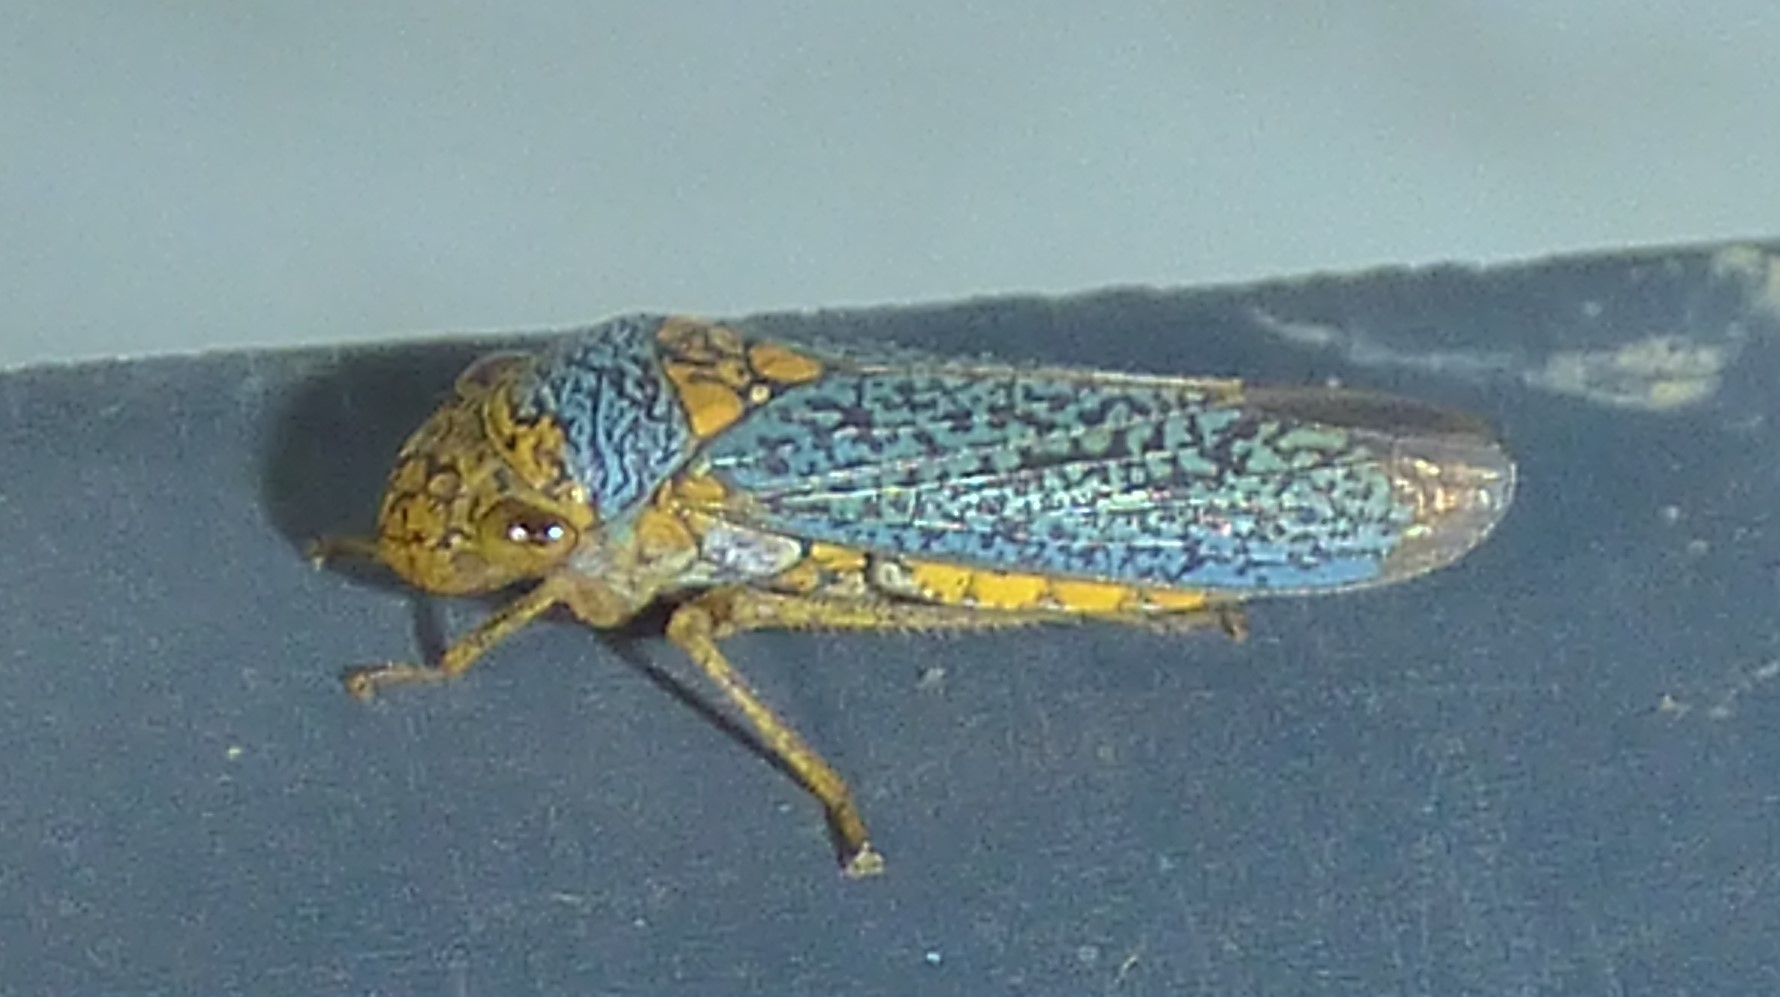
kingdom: Animalia
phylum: Arthropoda
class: Insecta
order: Hemiptera
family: Cicadellidae
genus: Oncometopia
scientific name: Oncometopia orbona
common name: Broad-headed sharpshooter
